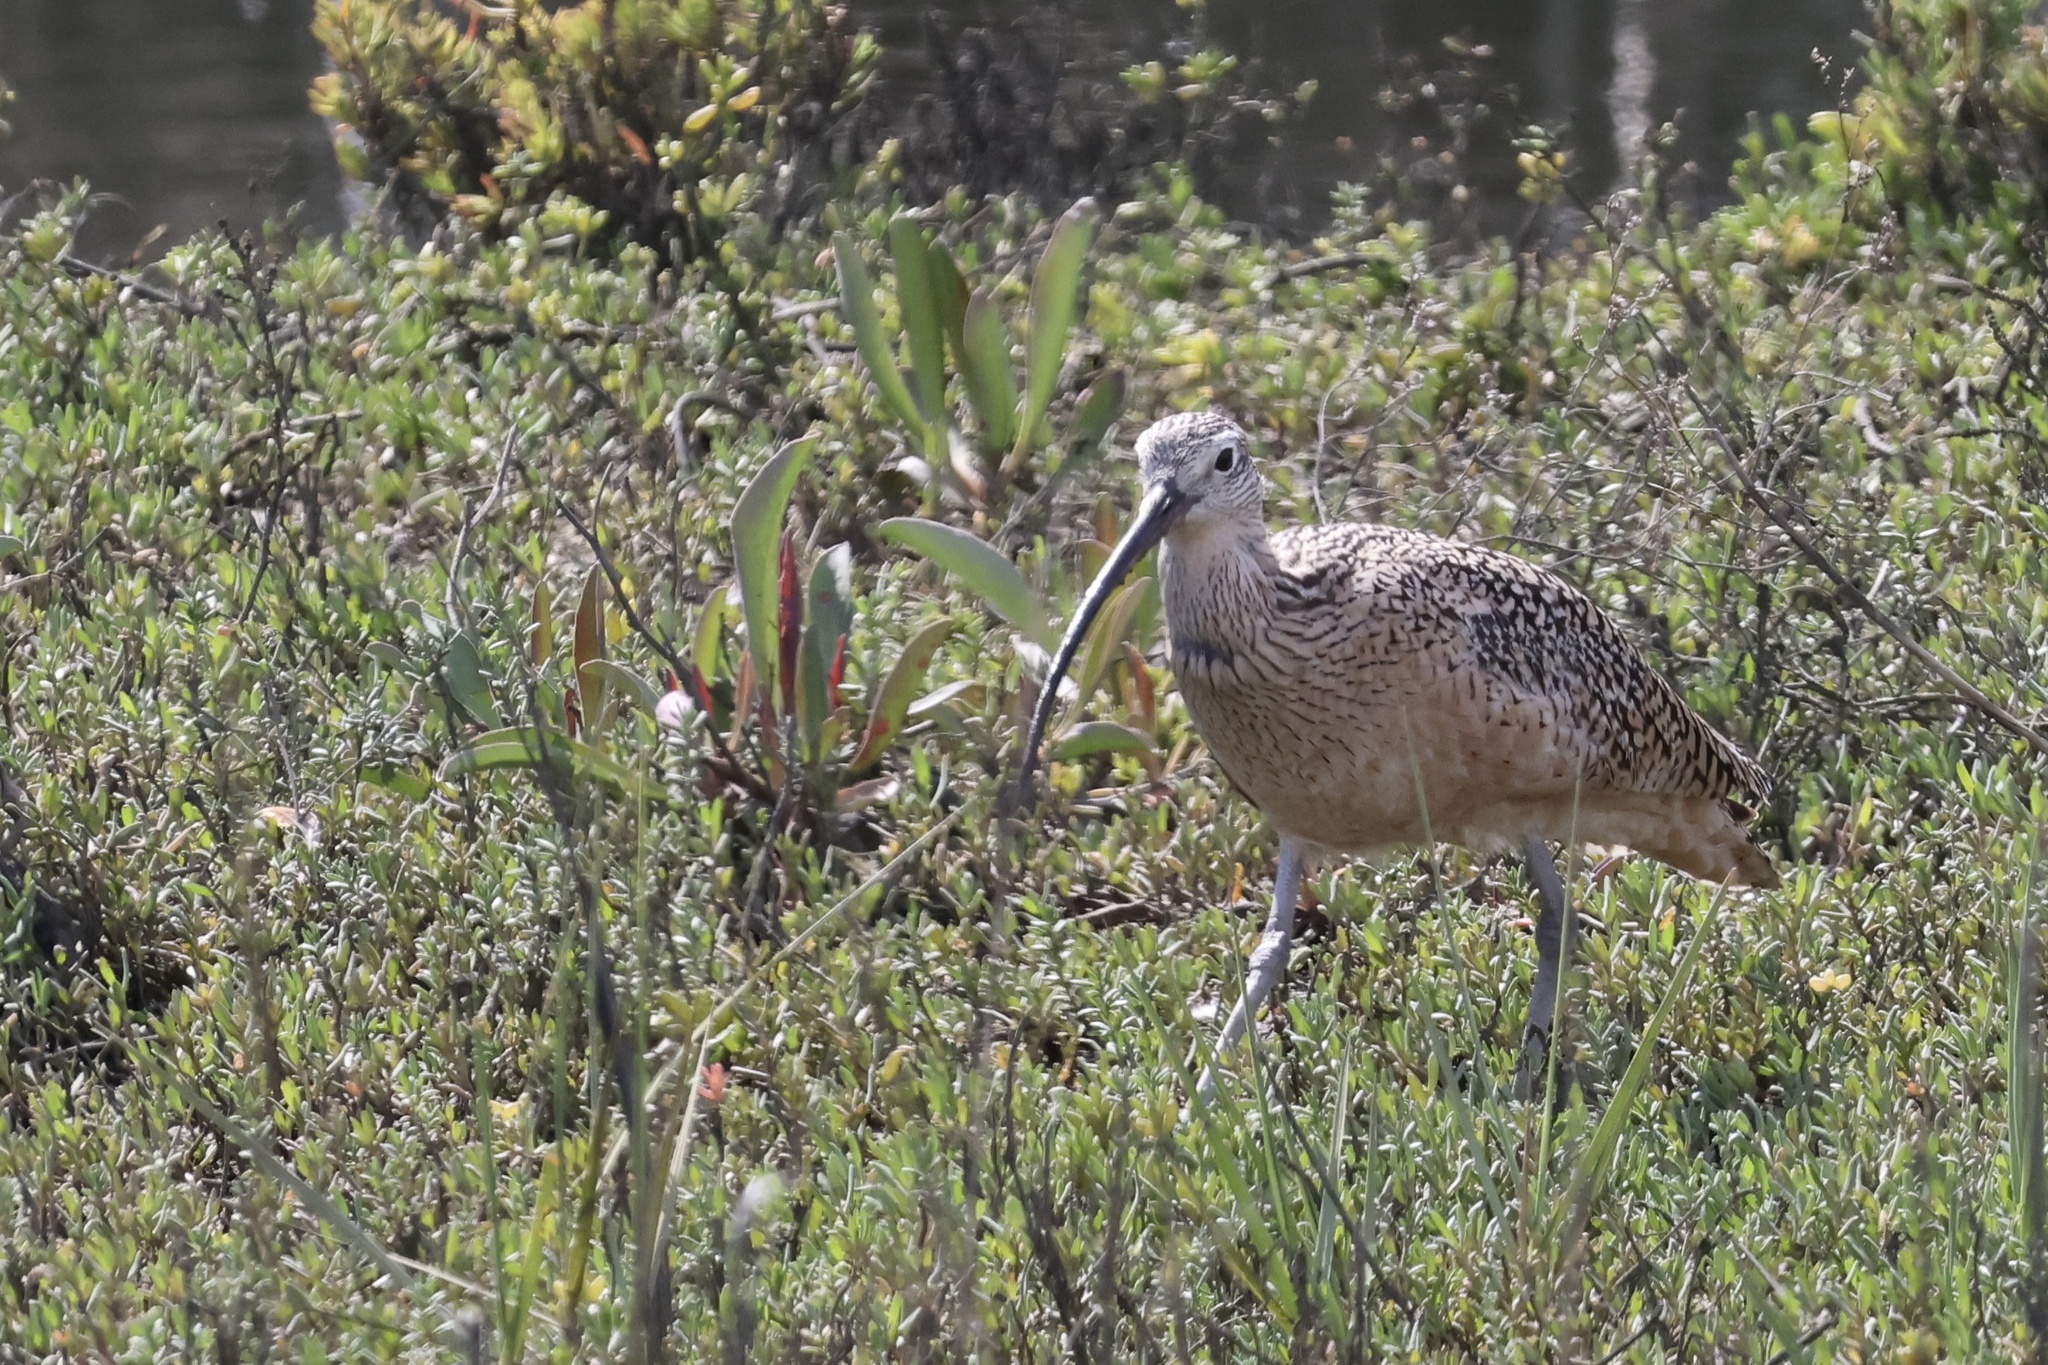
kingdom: Animalia
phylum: Chordata
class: Aves
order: Charadriiformes
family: Scolopacidae
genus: Numenius
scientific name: Numenius americanus
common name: Long-billed curlew
